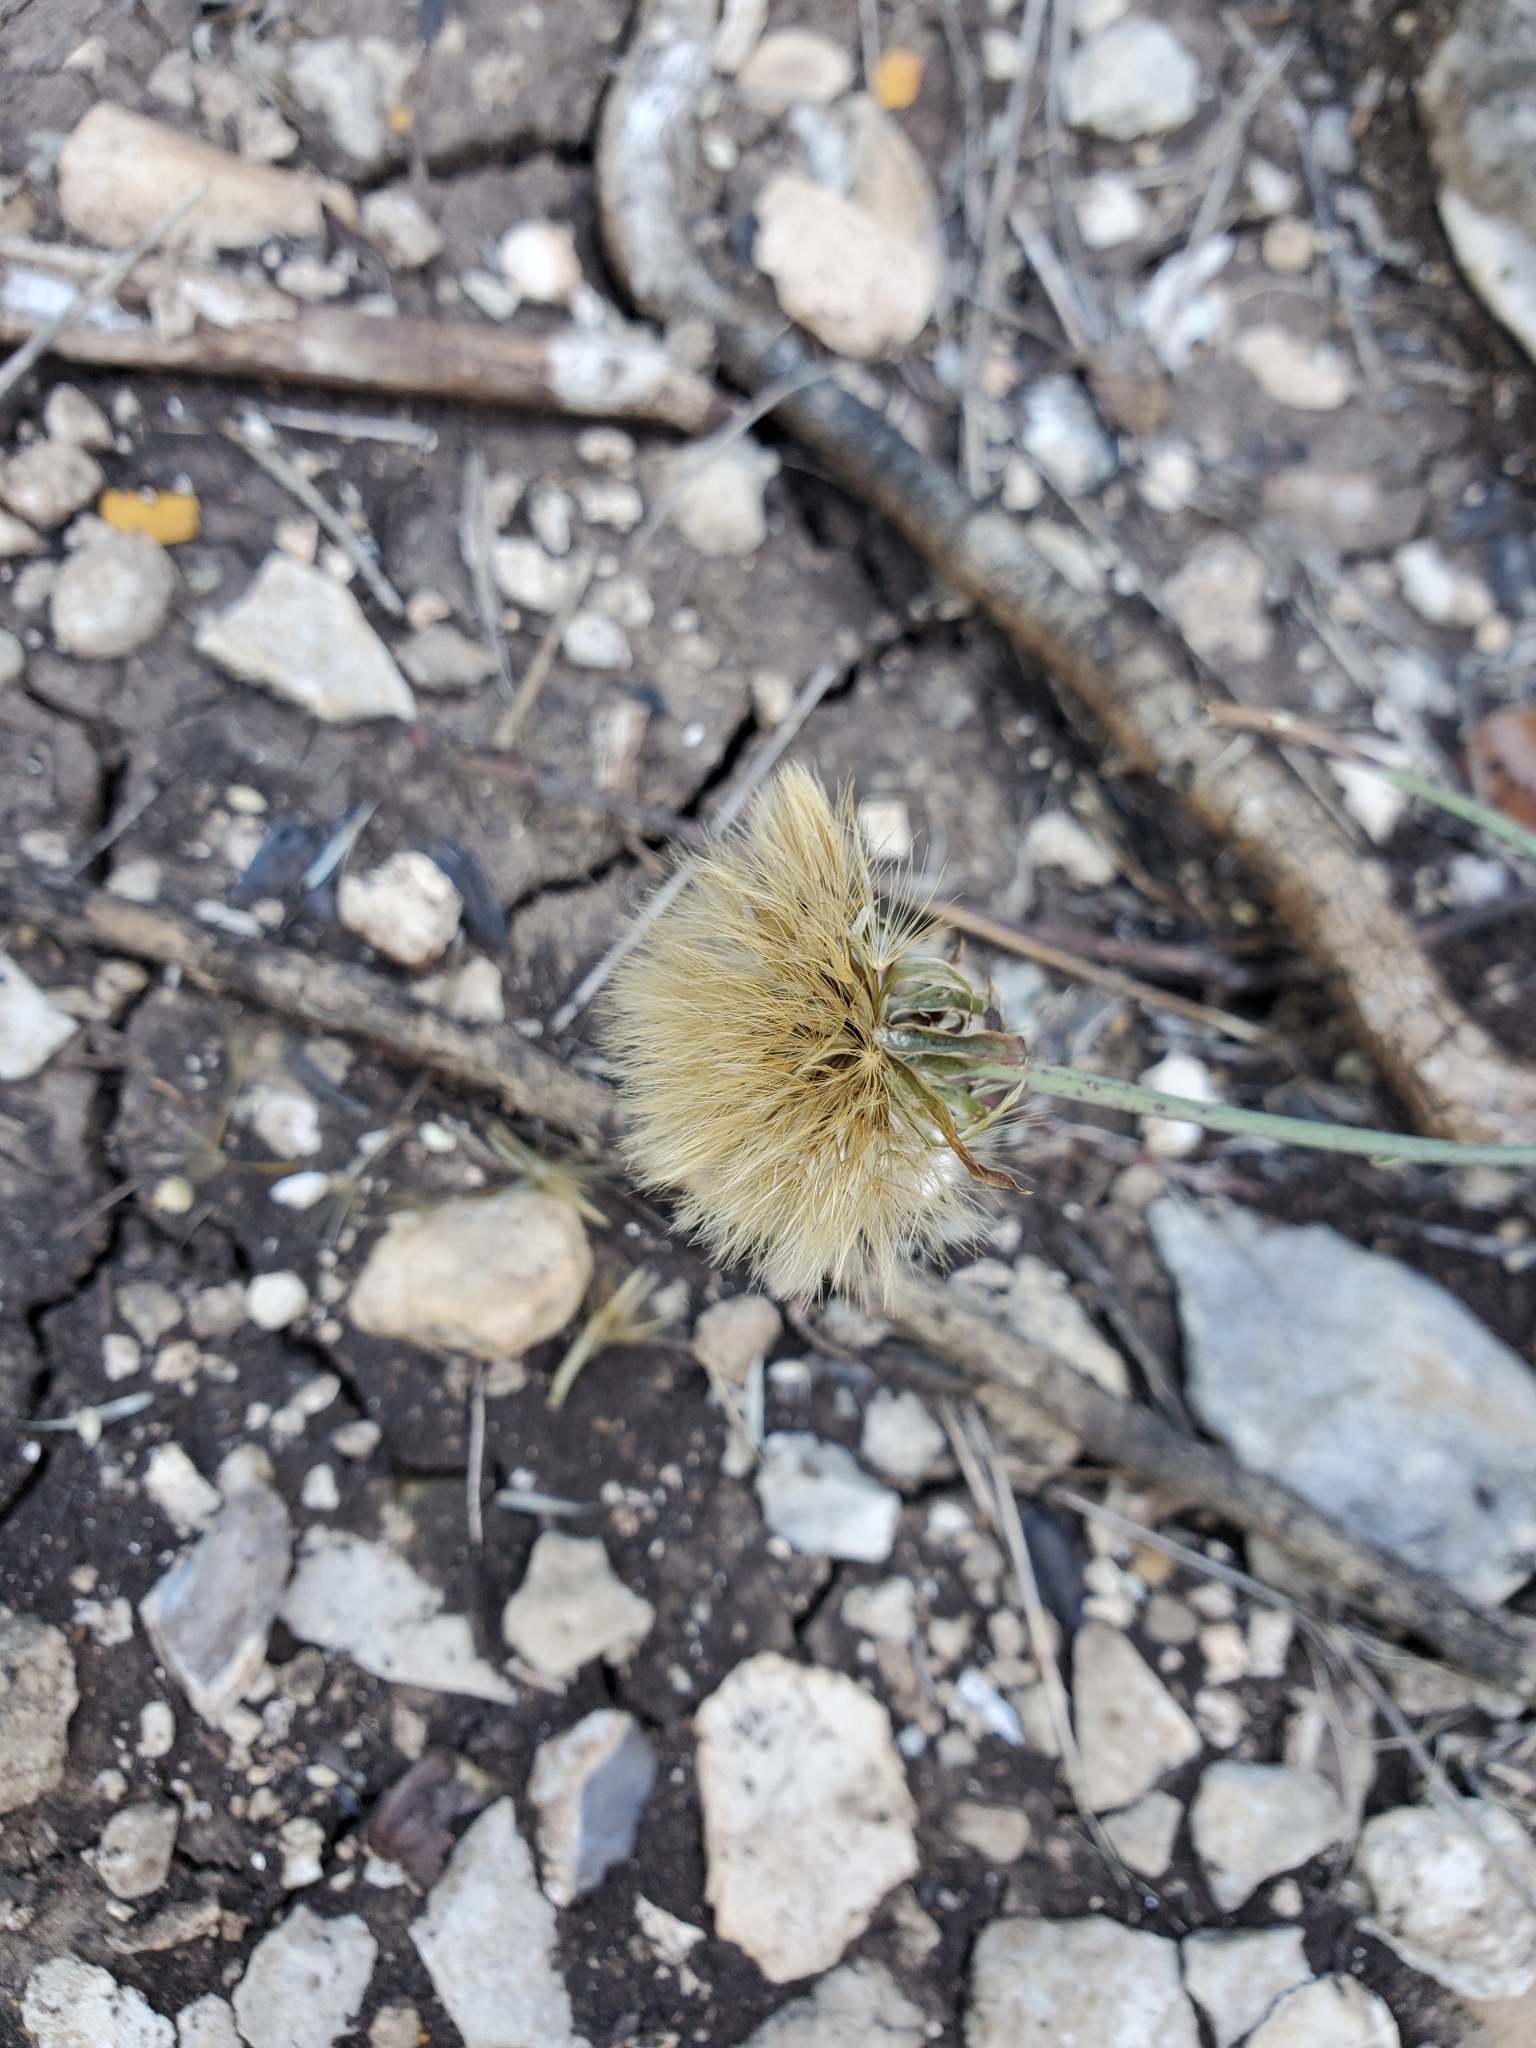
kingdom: Plantae
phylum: Tracheophyta
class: Magnoliopsida
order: Asterales
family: Asteraceae
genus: Pinaropappus
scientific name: Pinaropappus roseus
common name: Rock-lettuce
